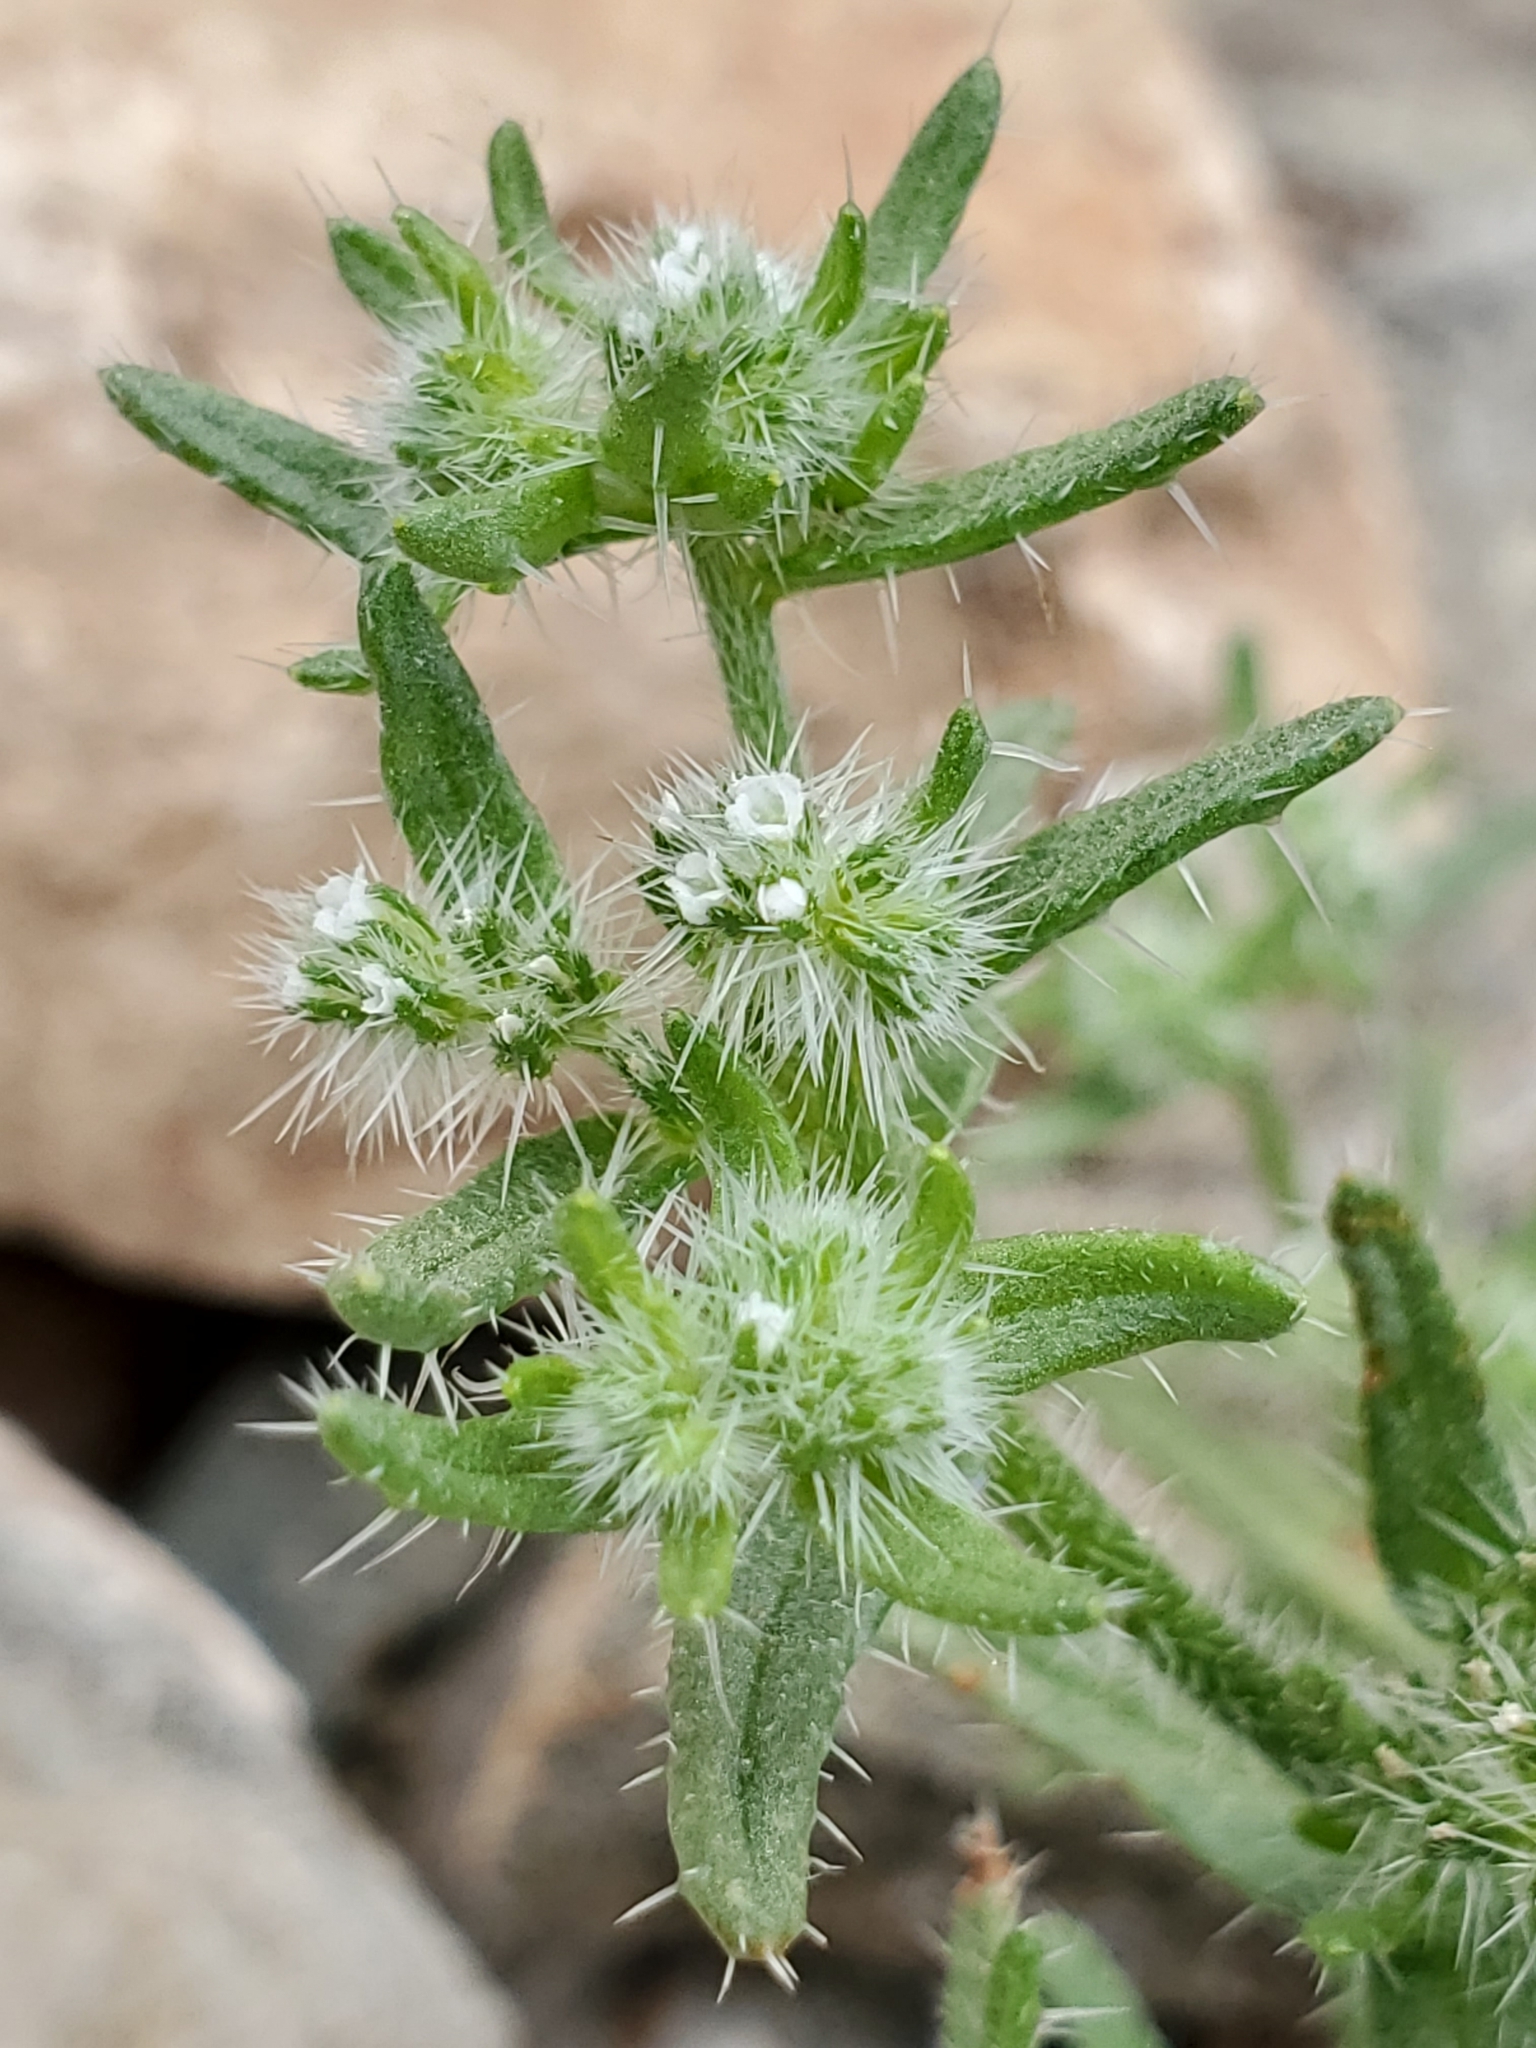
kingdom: Plantae
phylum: Tracheophyta
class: Magnoliopsida
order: Boraginales
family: Boraginaceae
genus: Cryptantha
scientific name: Cryptantha maritima
